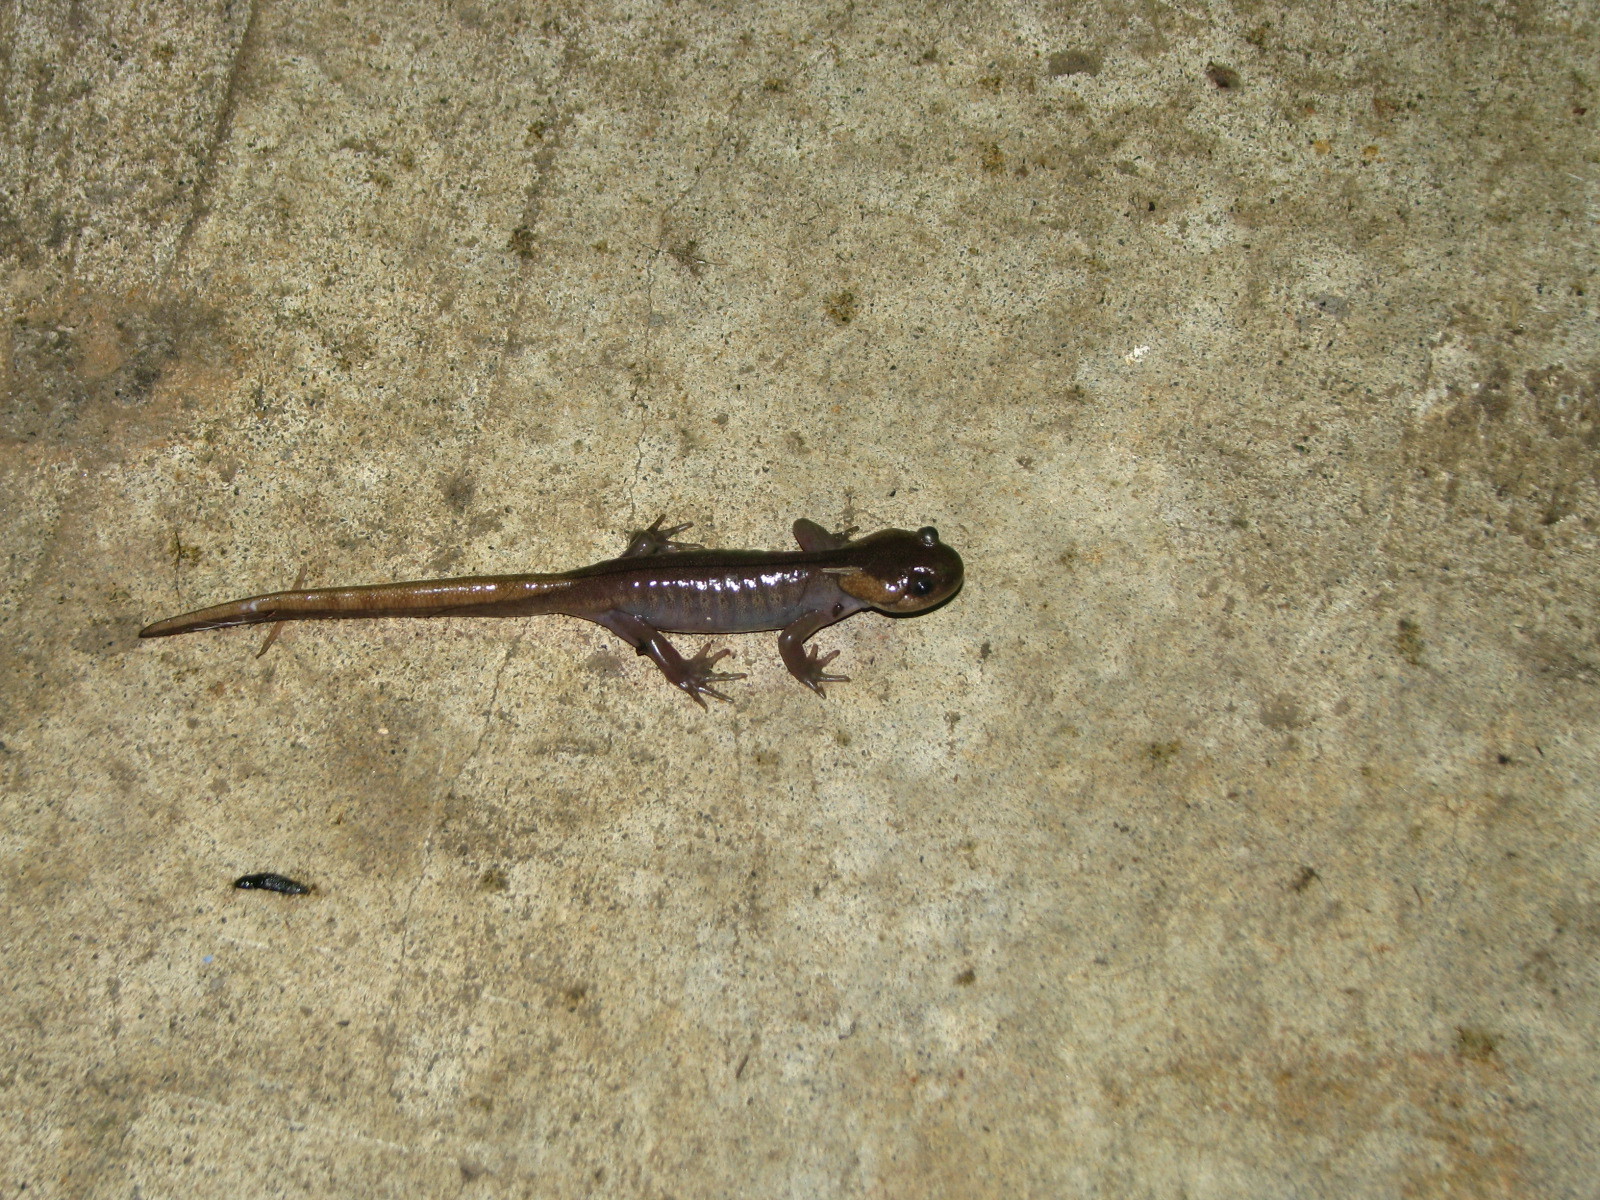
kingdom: Animalia
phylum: Chordata
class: Amphibia
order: Caudata
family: Ambystomatidae
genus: Ambystoma
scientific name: Ambystoma gracile
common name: Northwestern salamander
